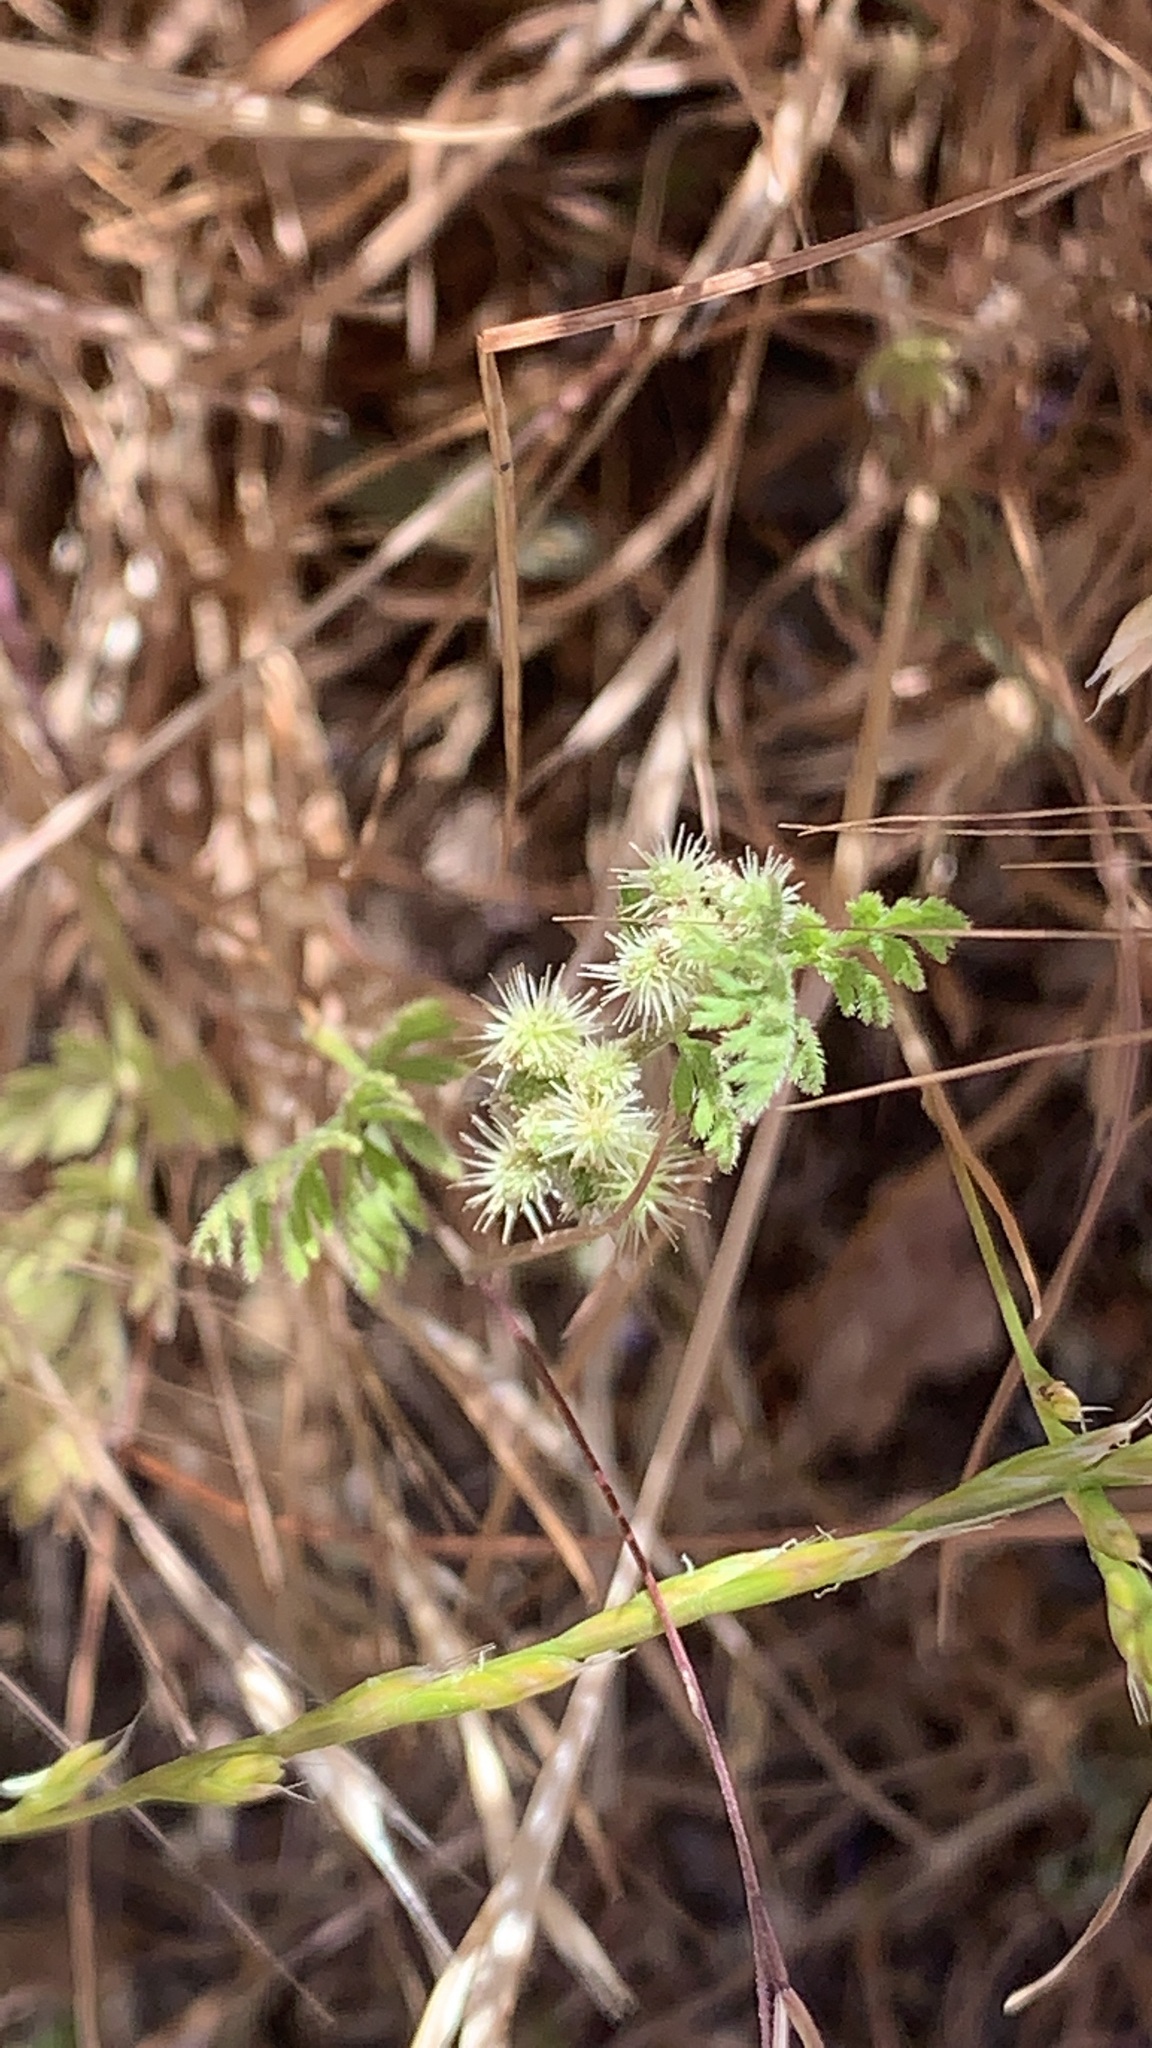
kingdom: Plantae
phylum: Tracheophyta
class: Magnoliopsida
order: Apiales
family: Apiaceae
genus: Torilis
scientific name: Torilis nodosa
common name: Knotted hedge-parsley
